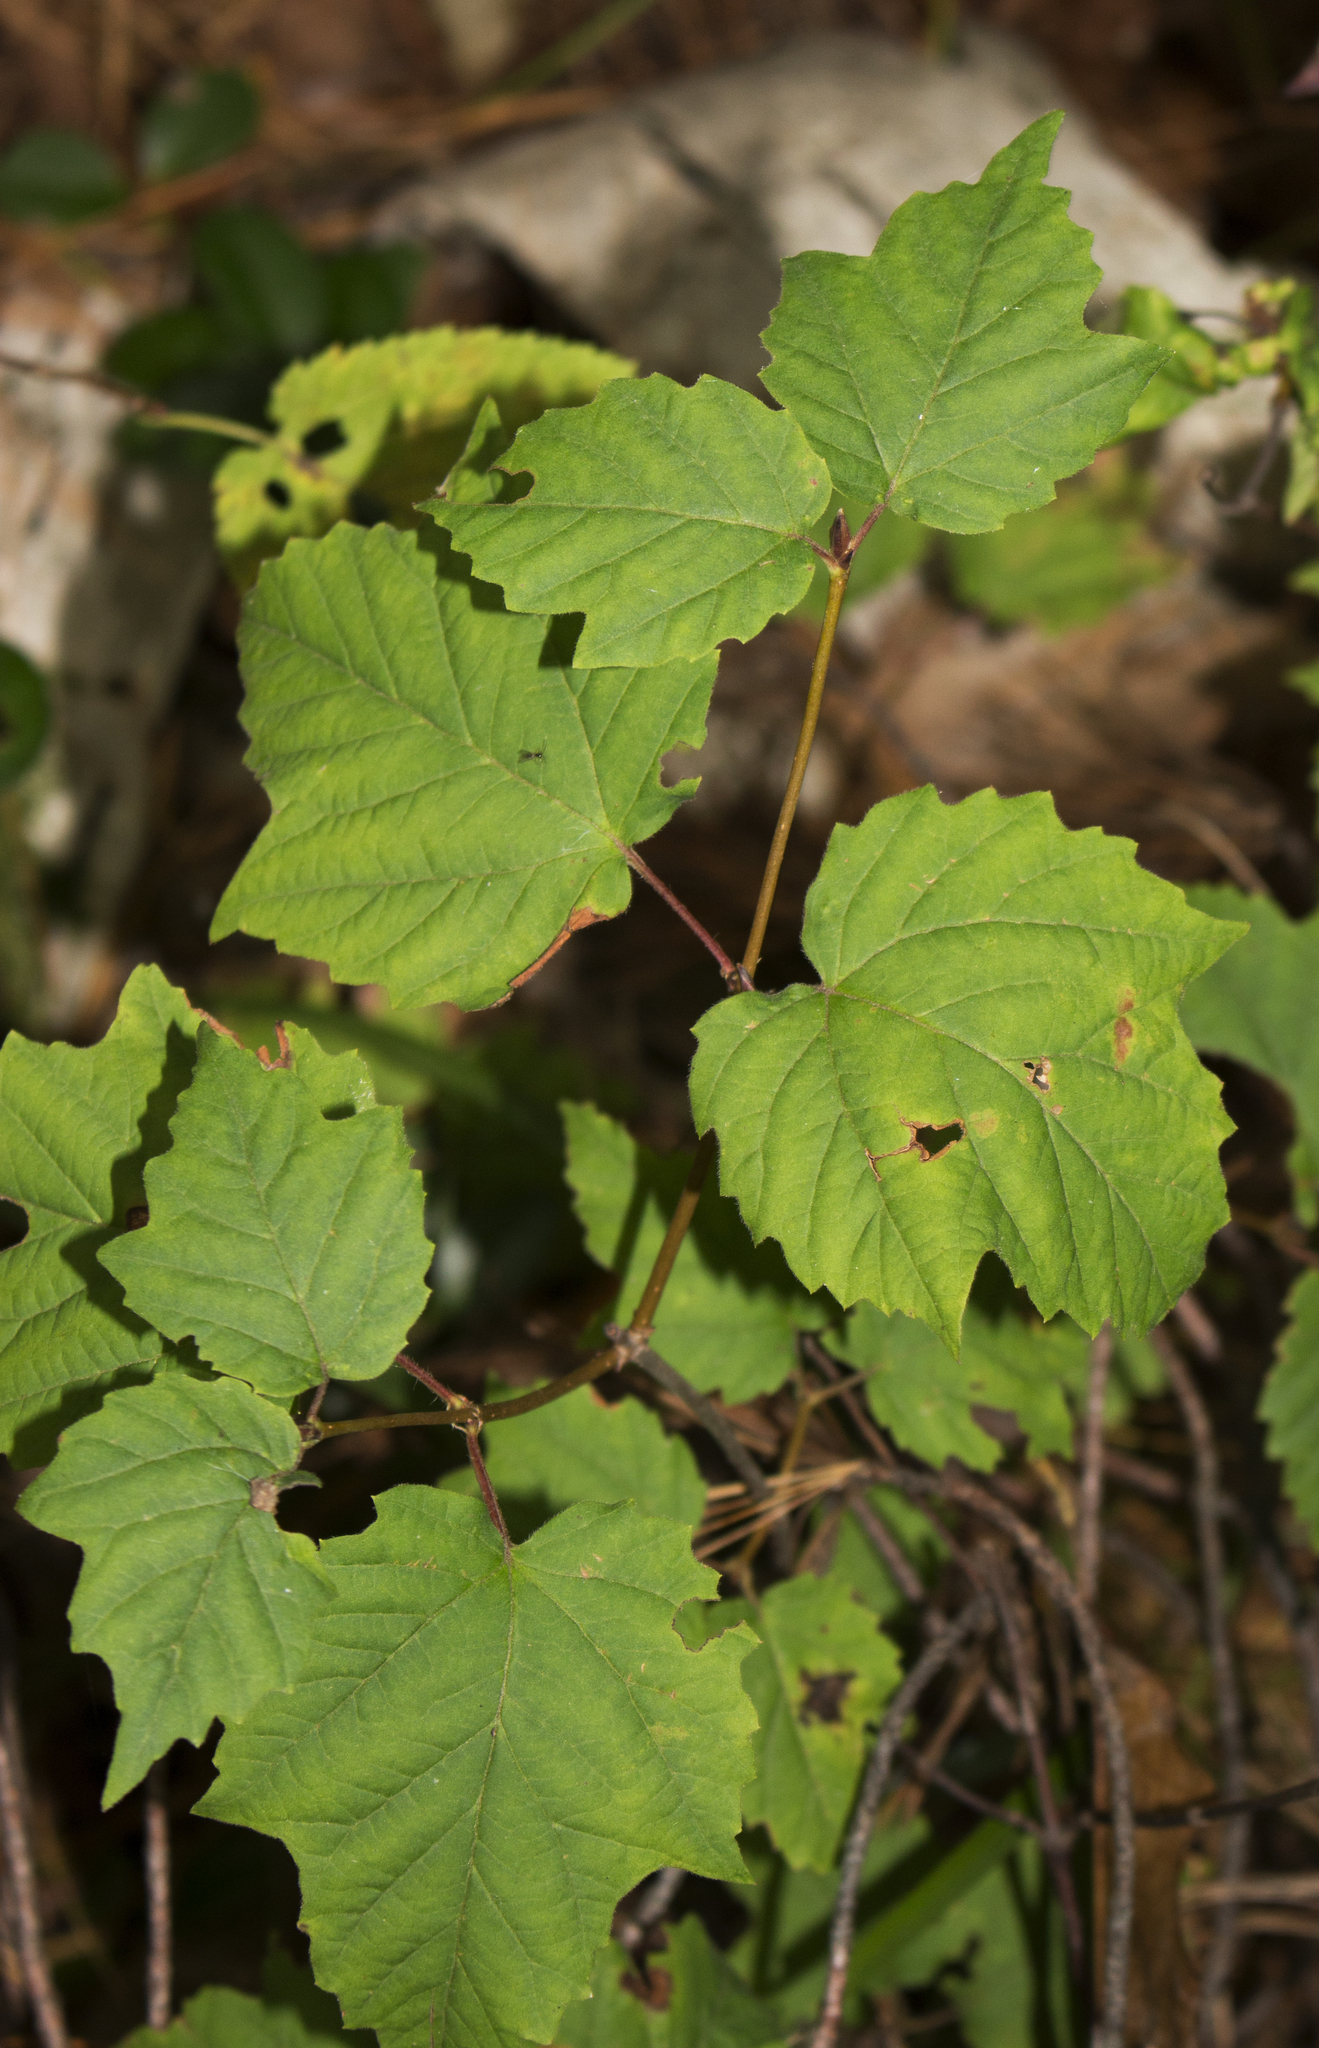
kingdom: Plantae
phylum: Tracheophyta
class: Magnoliopsida
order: Dipsacales
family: Viburnaceae
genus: Viburnum
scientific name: Viburnum acerifolium
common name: Dockmackie
